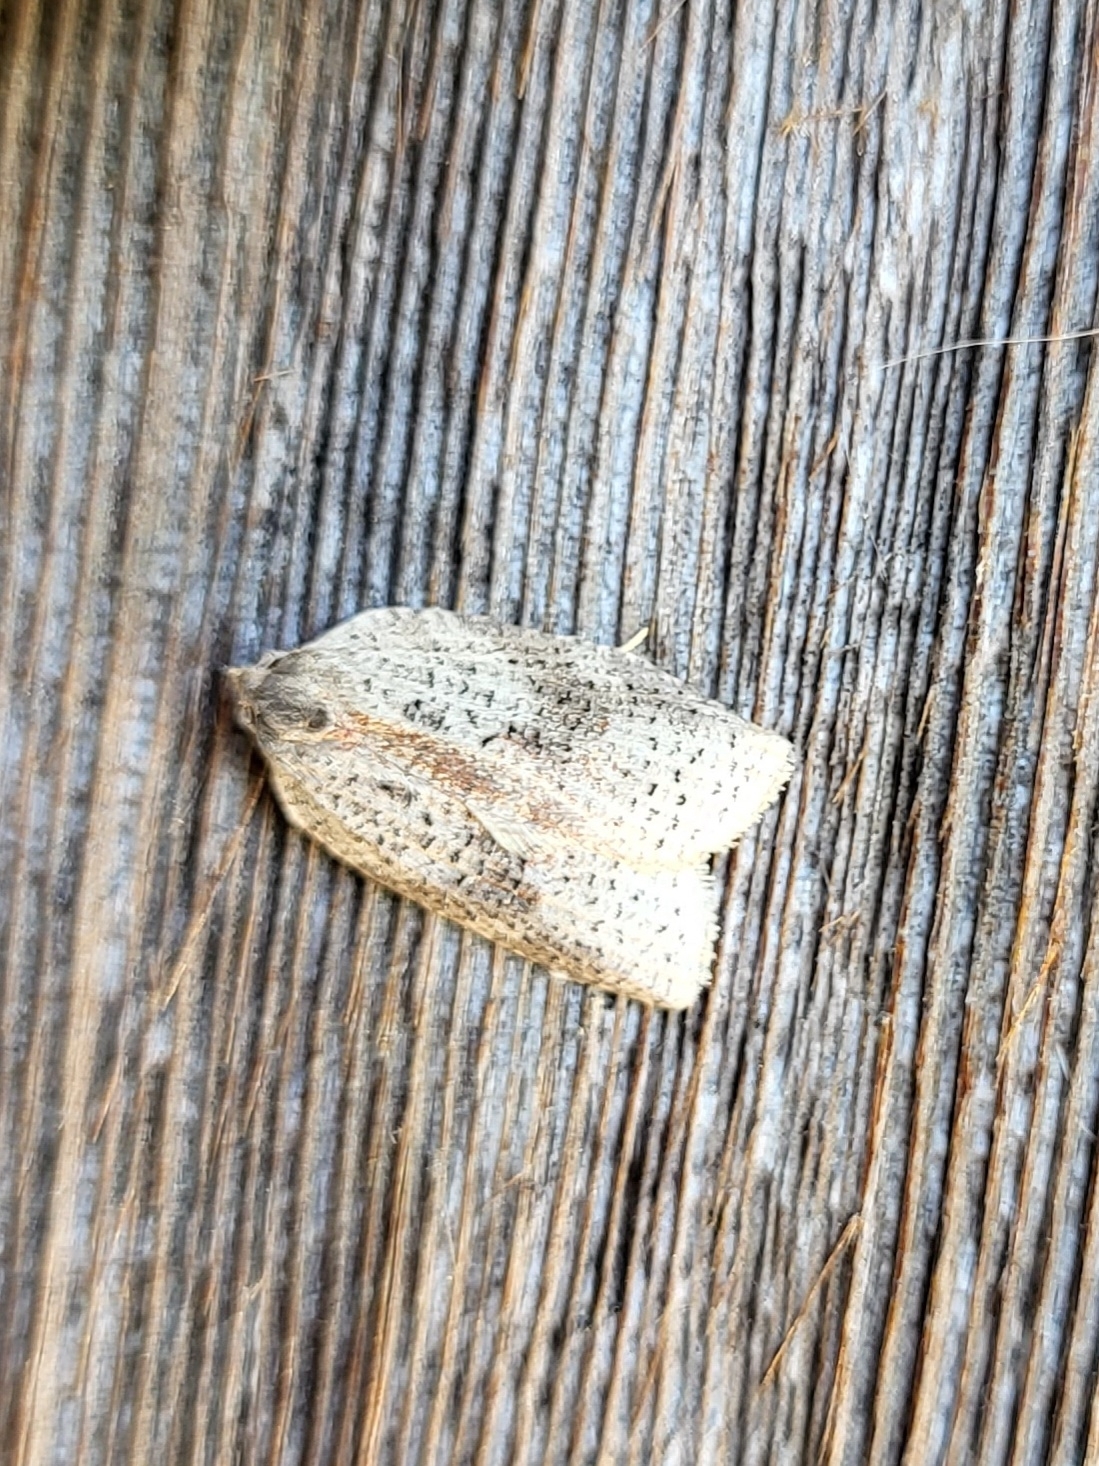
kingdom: Animalia
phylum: Arthropoda
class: Insecta
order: Lepidoptera
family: Tortricidae
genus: Amorbia
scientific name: Amorbia humerosana
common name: White-lined leafroller moth
